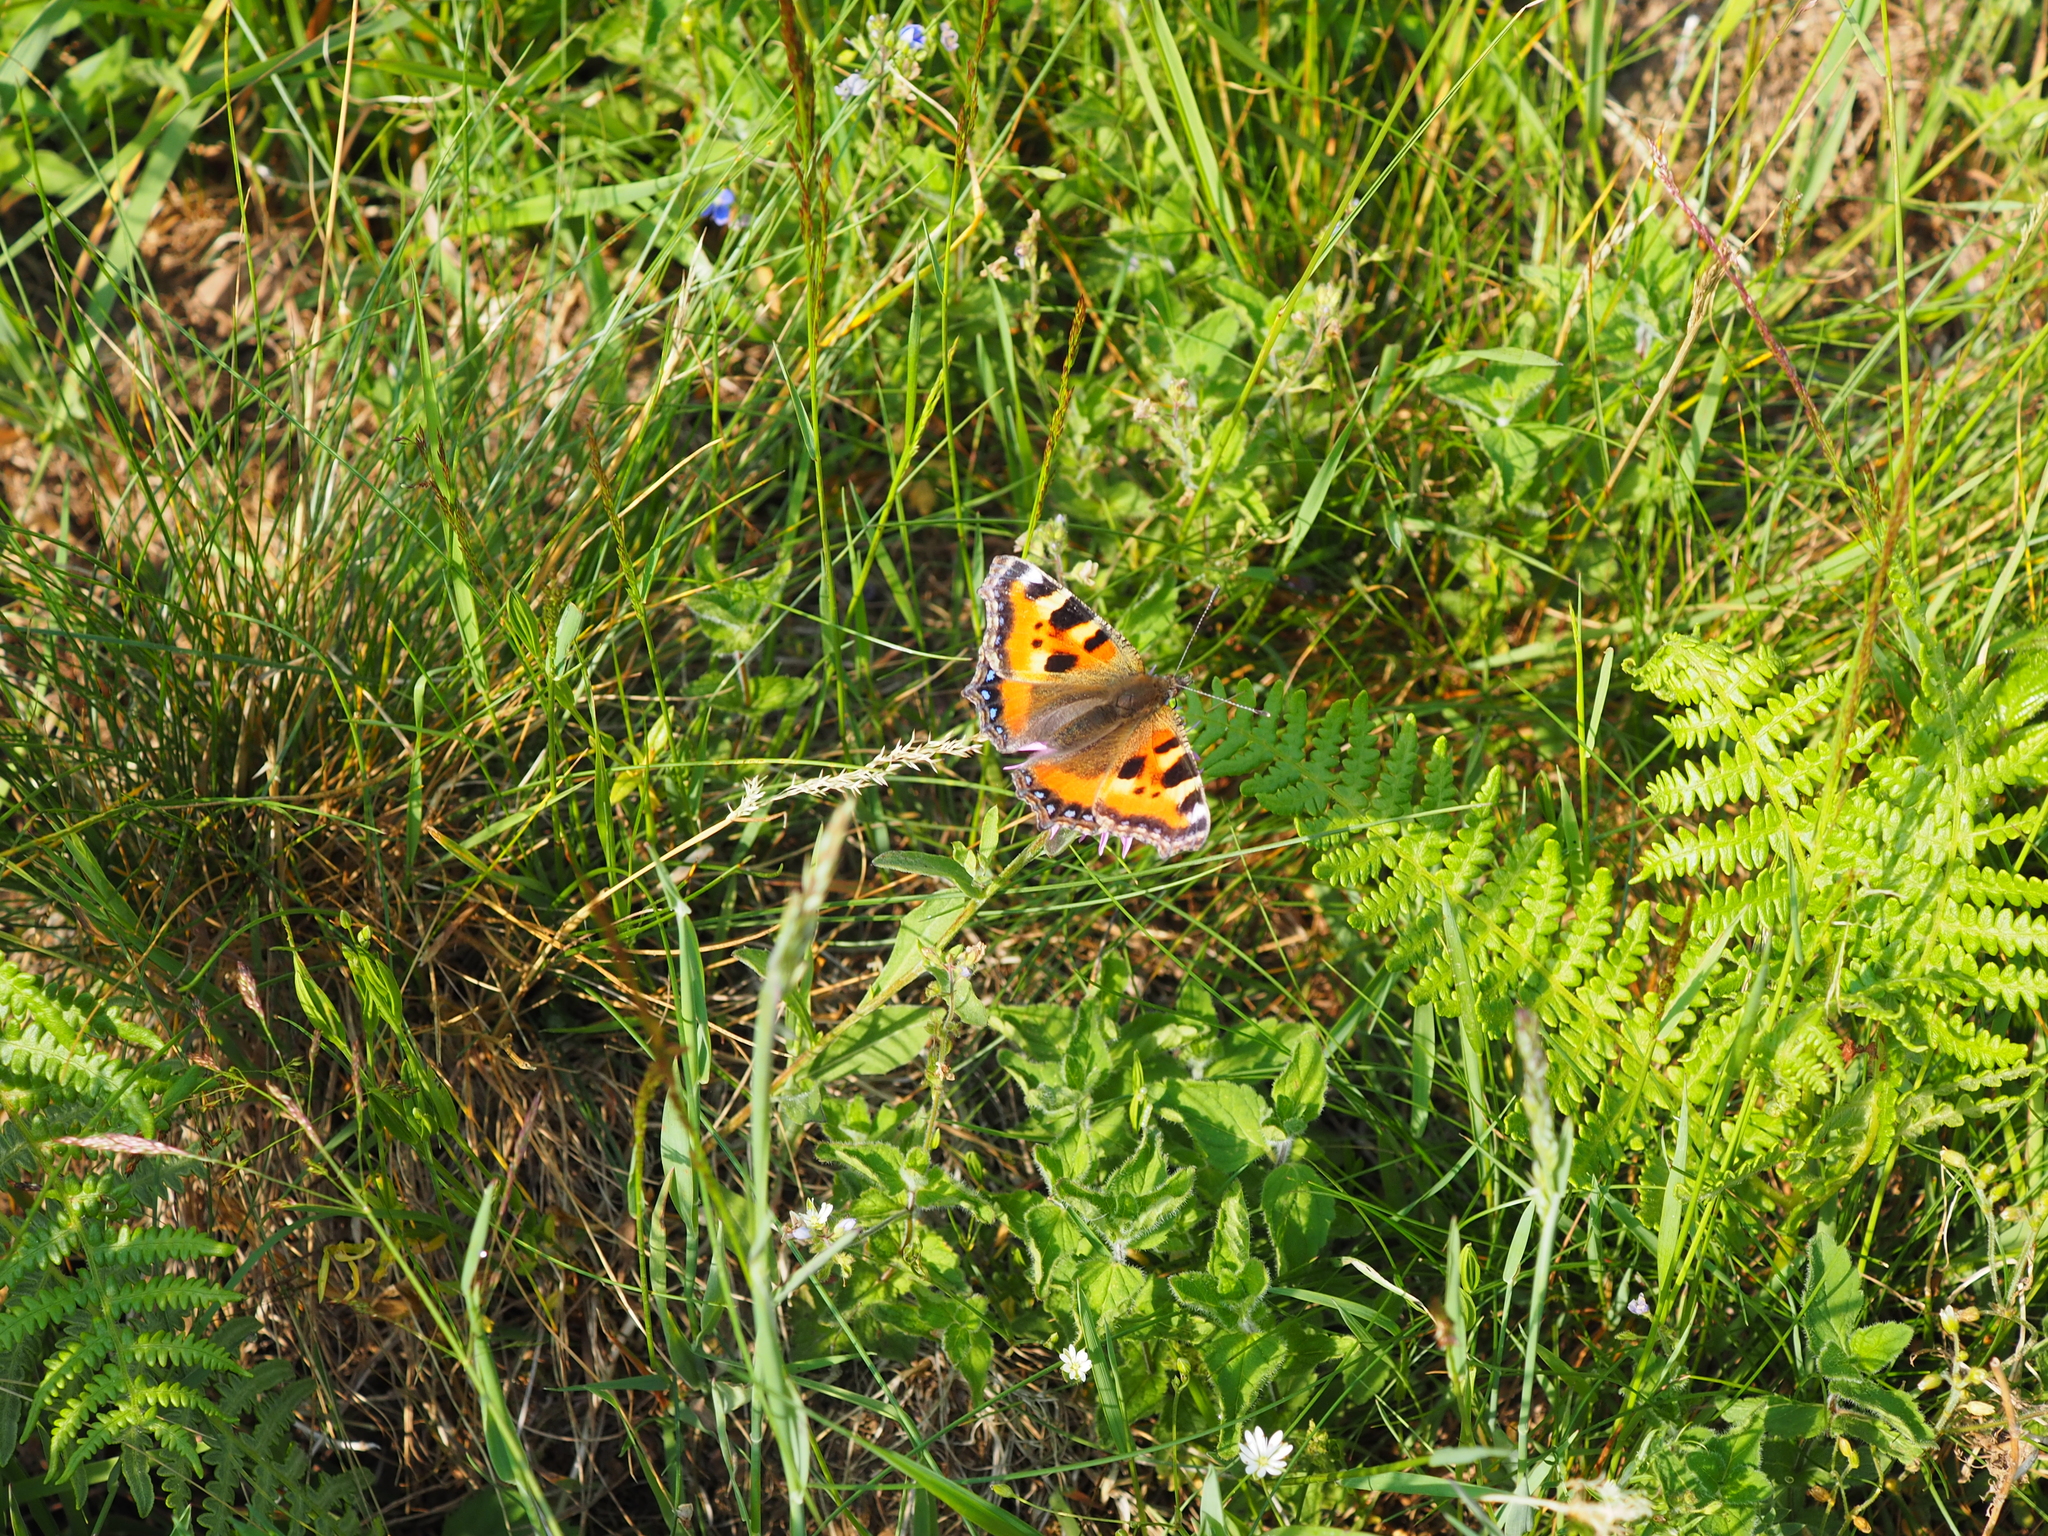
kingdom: Animalia
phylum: Arthropoda
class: Insecta
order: Lepidoptera
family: Nymphalidae
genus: Aglais
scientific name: Aglais urticae
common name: Small tortoiseshell
